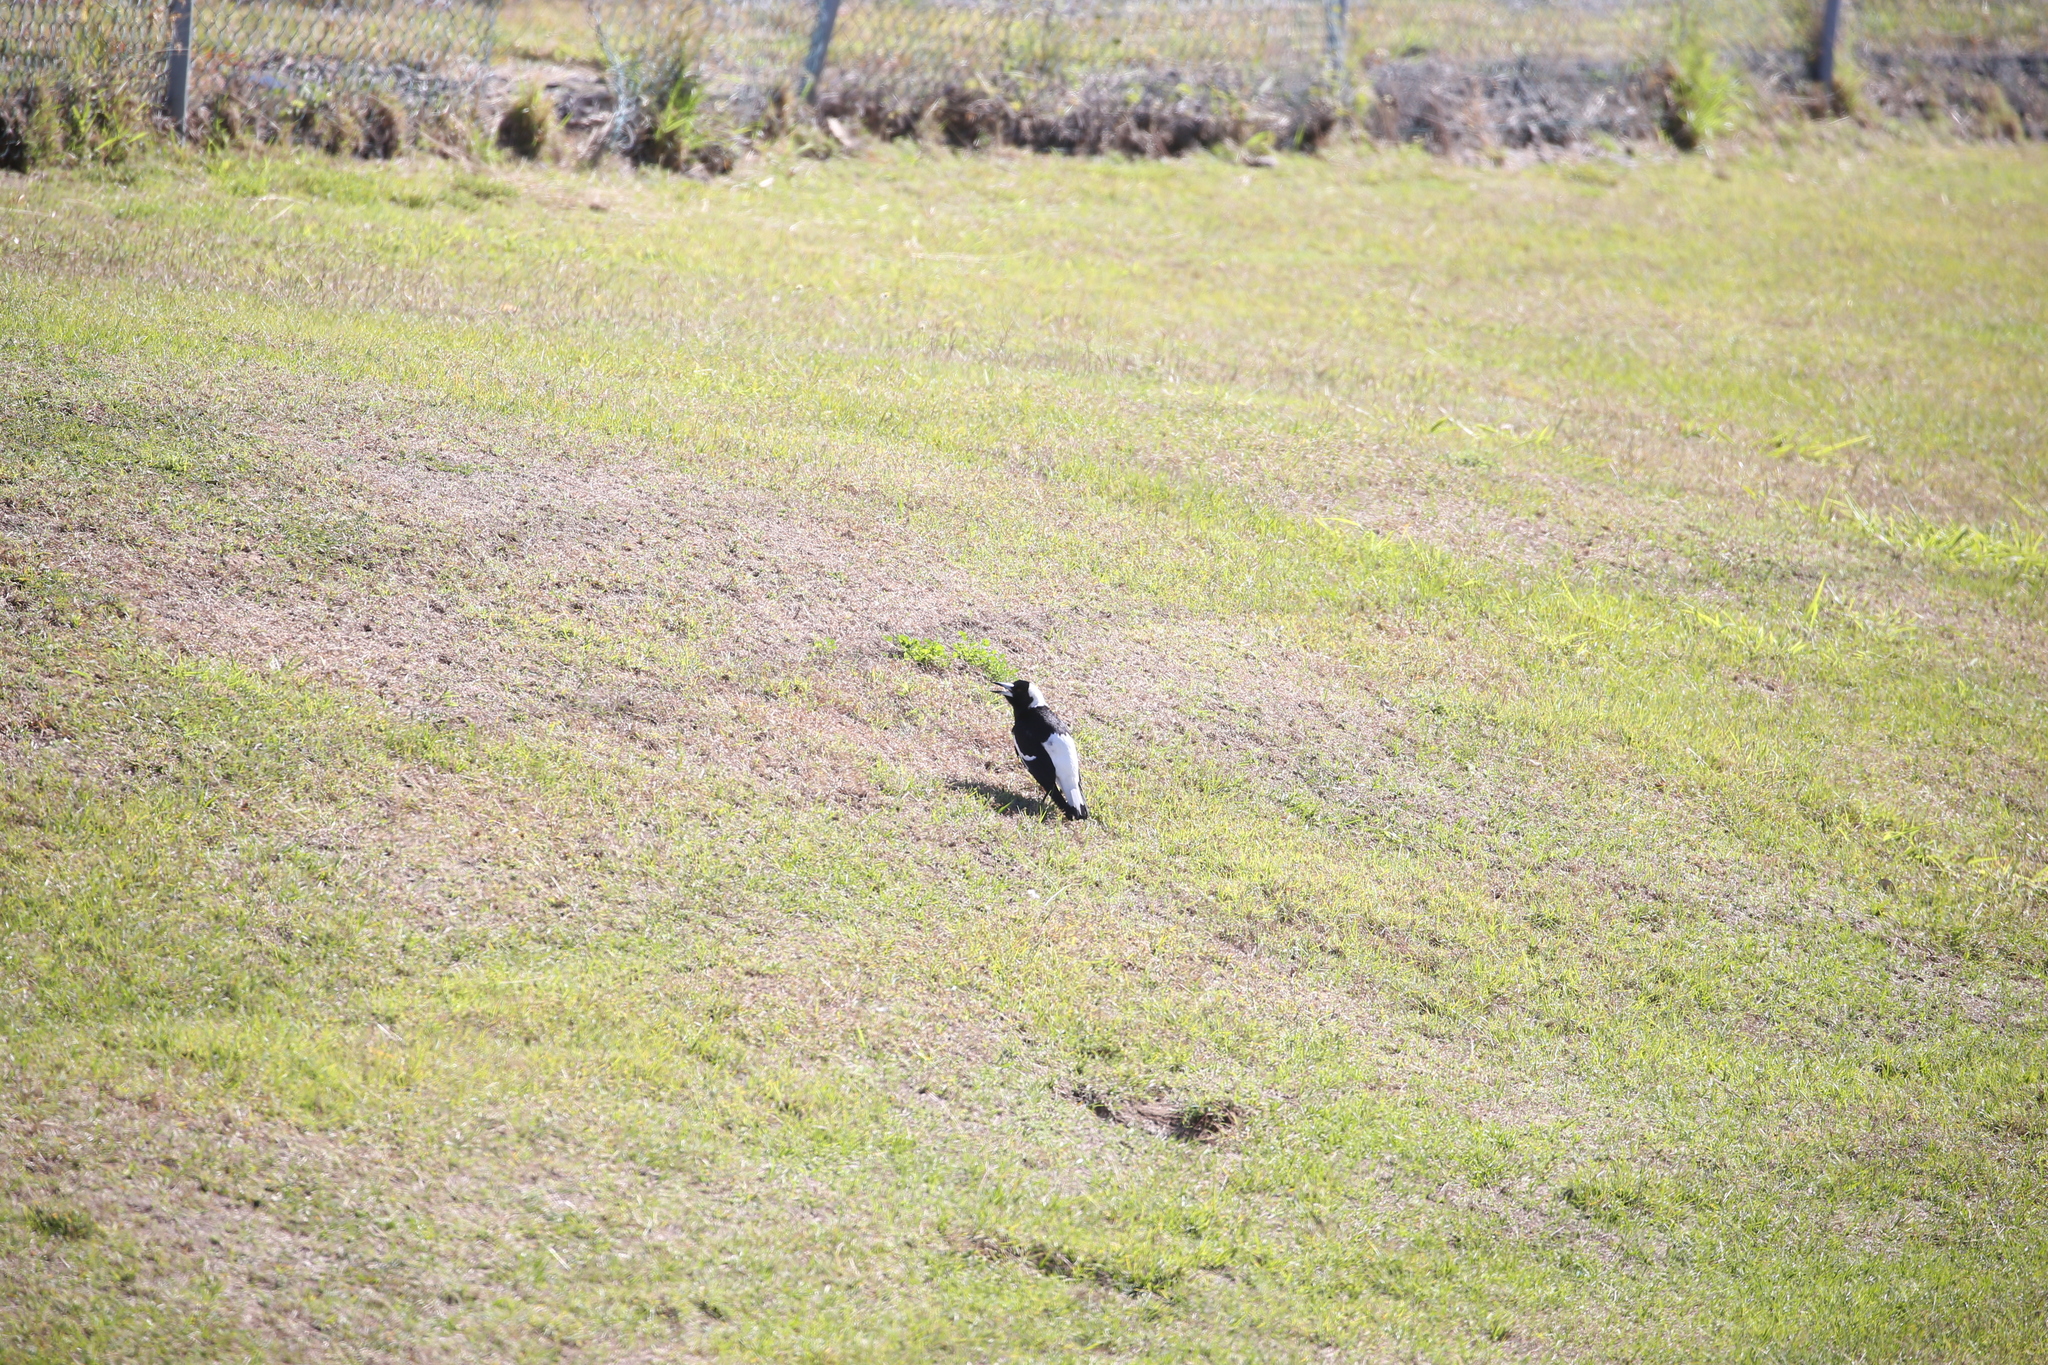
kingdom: Animalia
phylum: Chordata
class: Aves
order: Passeriformes
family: Cracticidae
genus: Gymnorhina
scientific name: Gymnorhina tibicen
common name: Australian magpie
